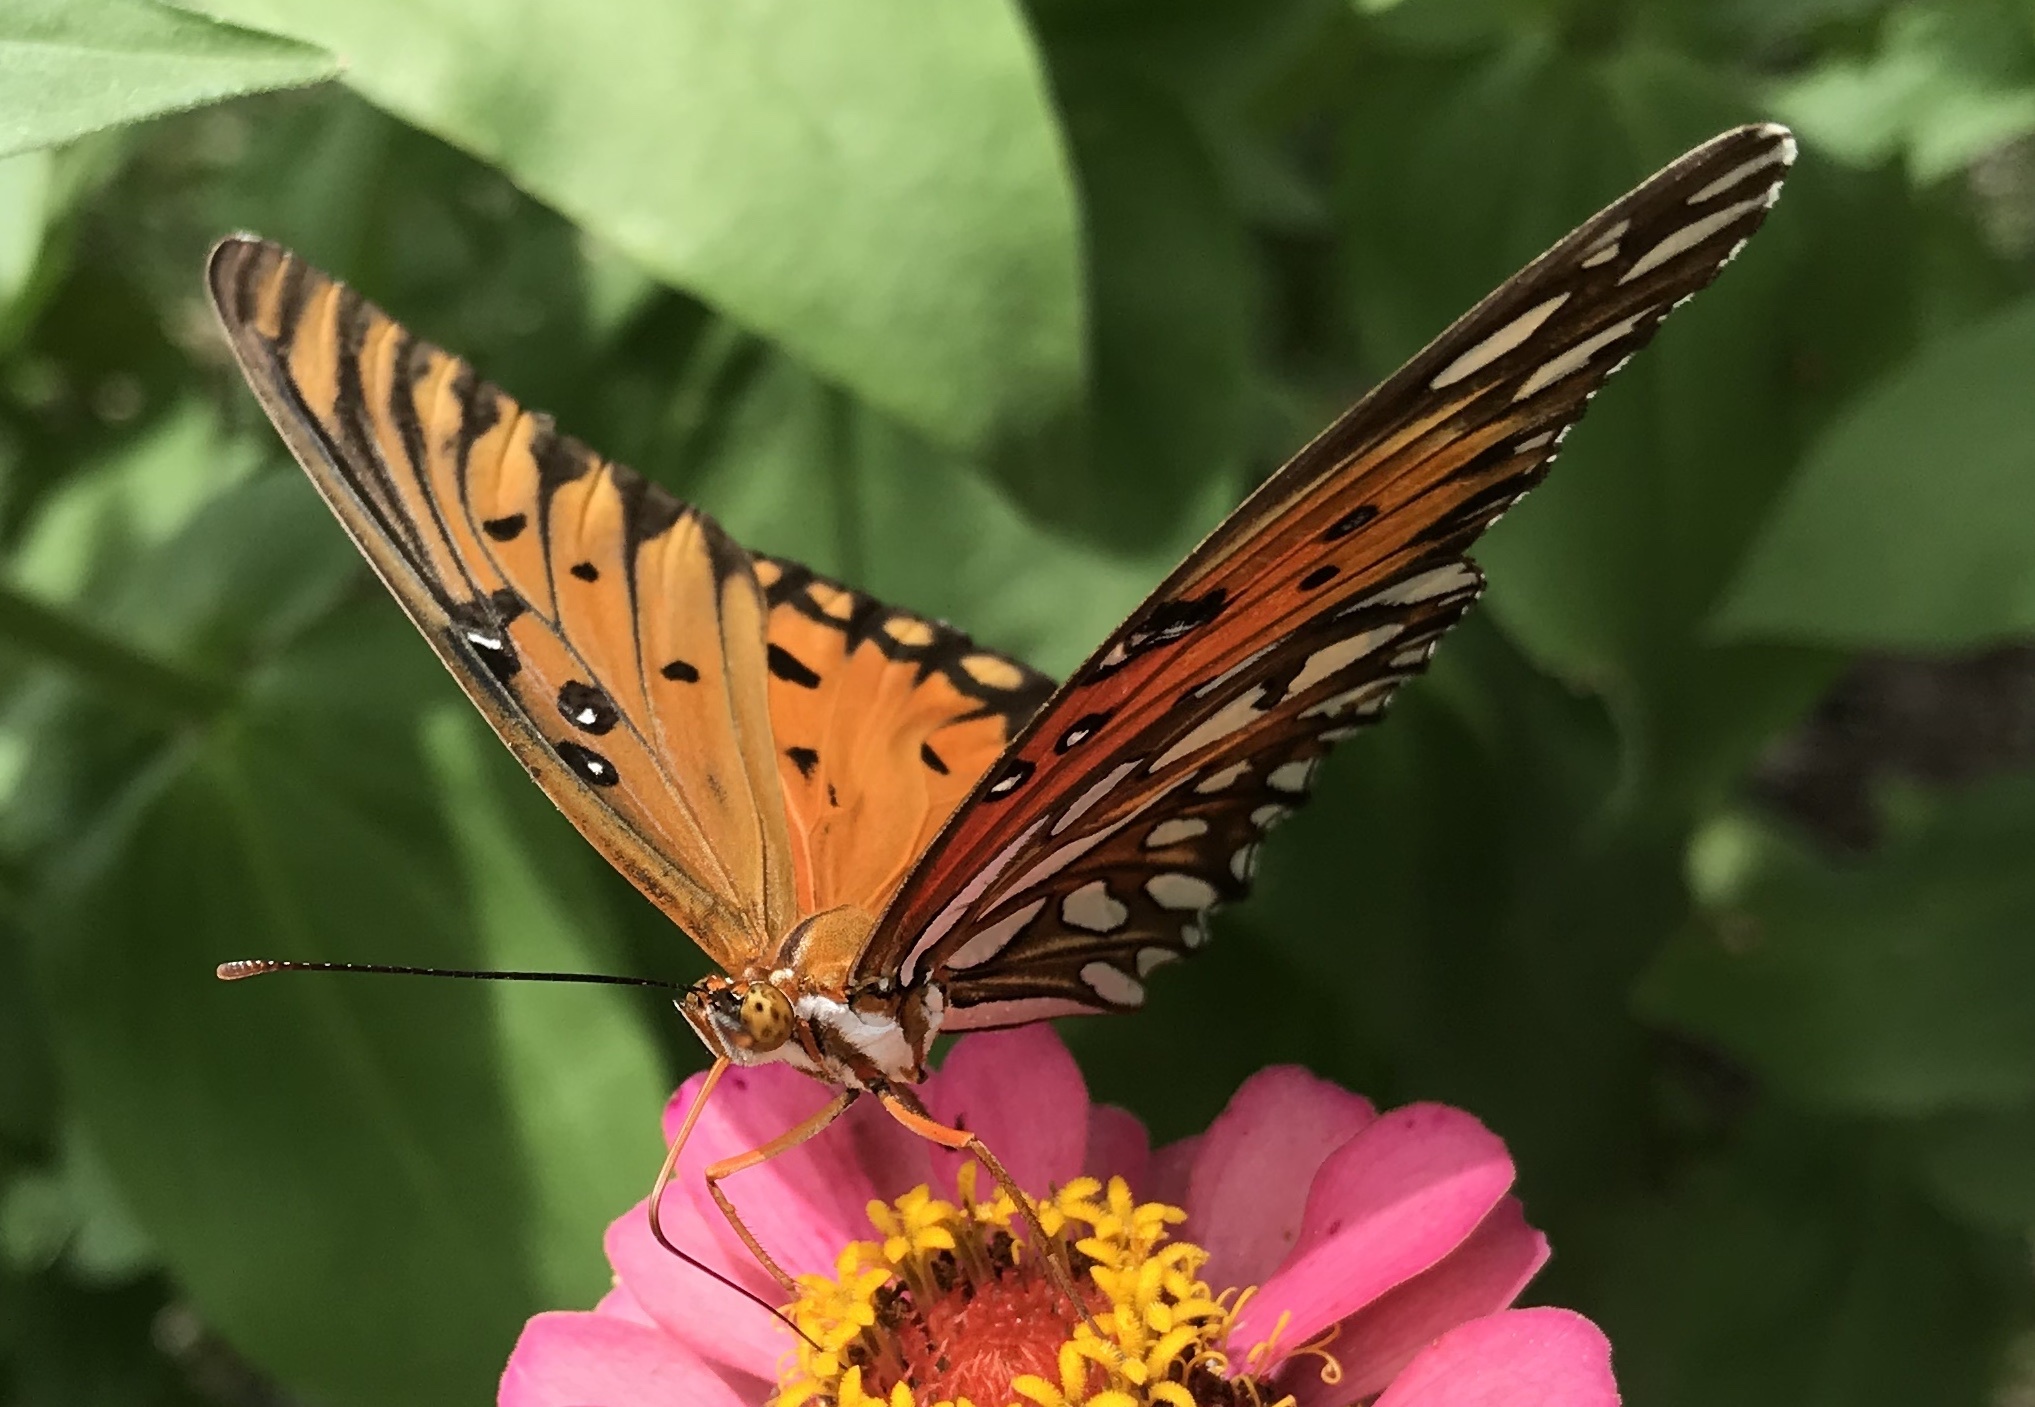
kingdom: Animalia
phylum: Arthropoda
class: Insecta
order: Lepidoptera
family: Nymphalidae
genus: Dione
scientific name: Dione vanillae
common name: Gulf fritillary
